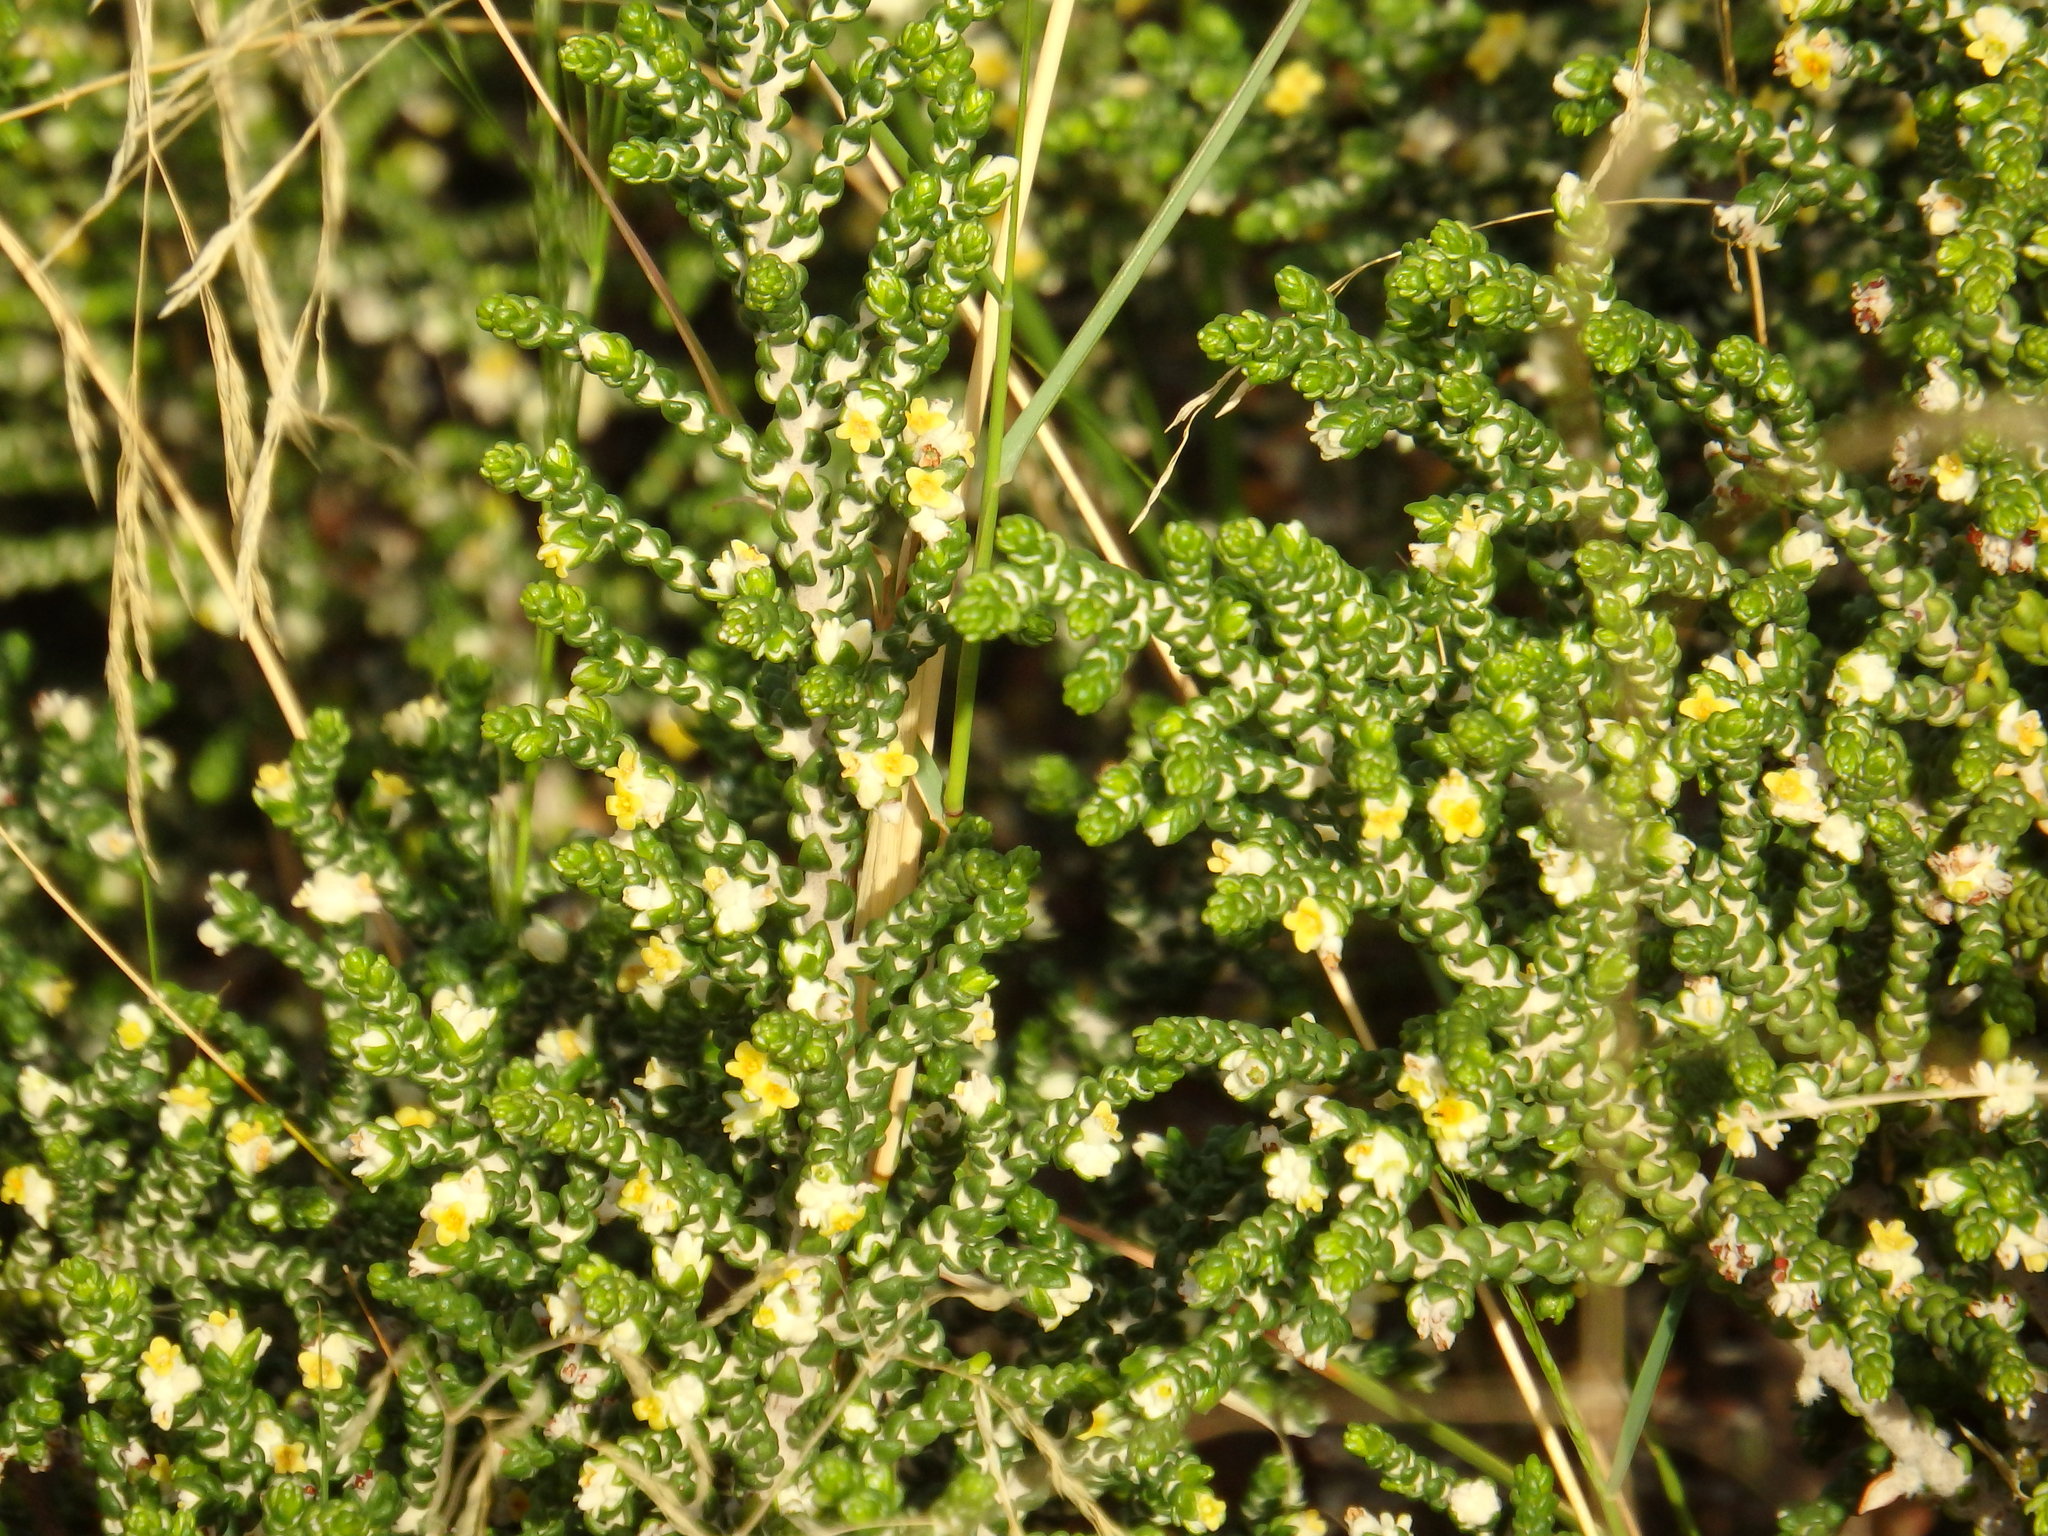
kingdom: Plantae
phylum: Tracheophyta
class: Magnoliopsida
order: Malvales
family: Thymelaeaceae
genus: Thymelaea
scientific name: Thymelaea hirsuta
